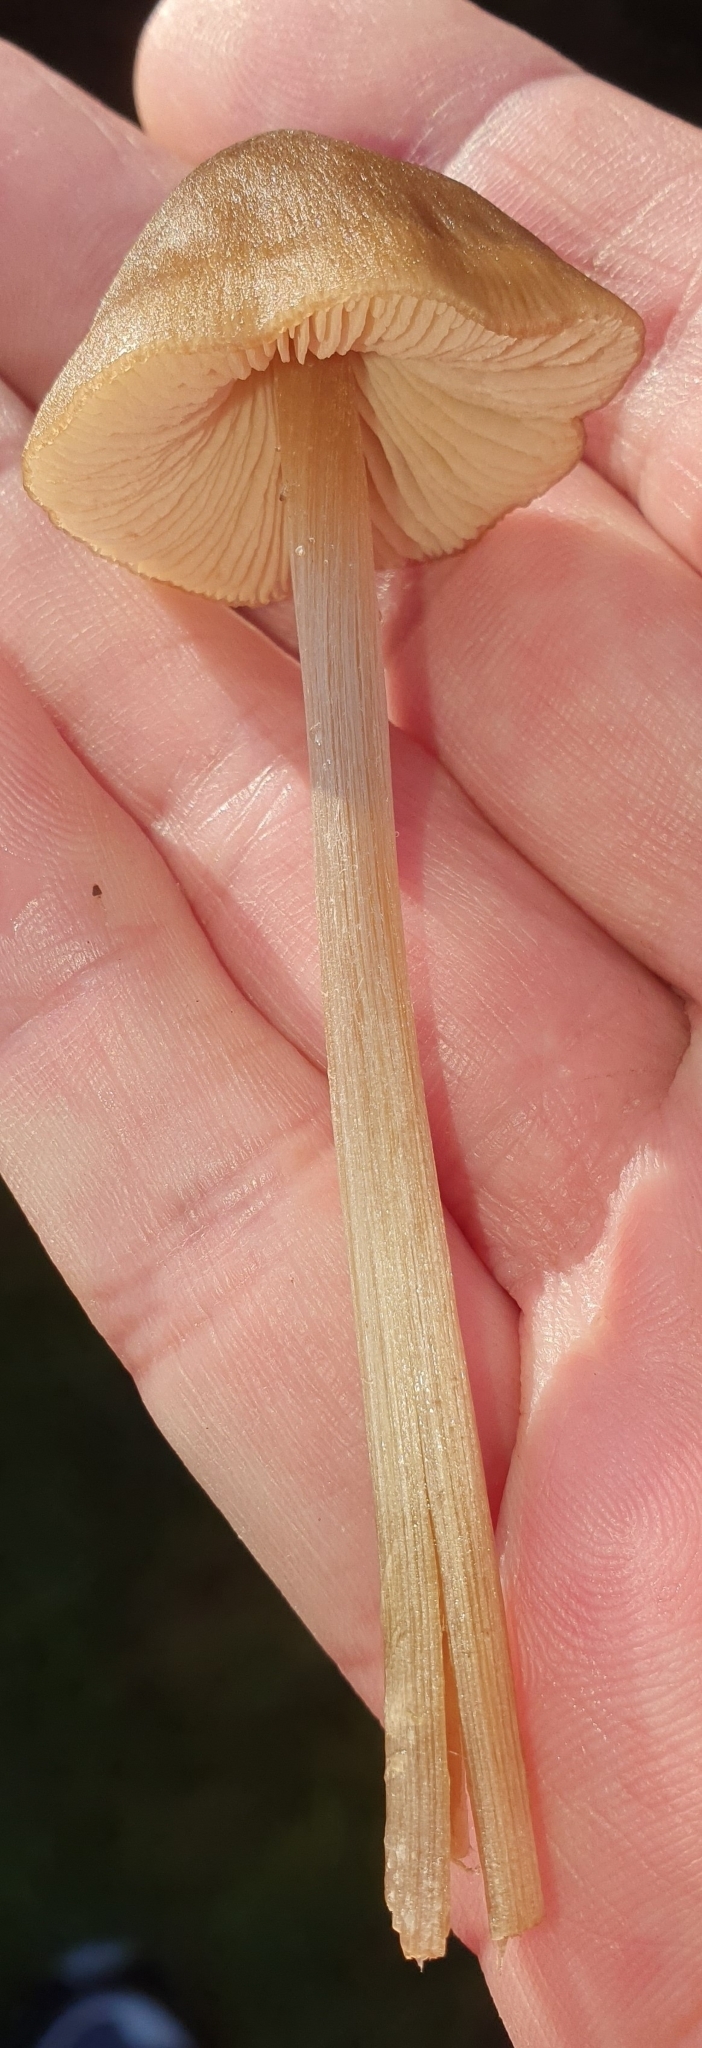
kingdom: Fungi
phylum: Basidiomycota
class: Agaricomycetes
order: Agaricales
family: Entolomataceae
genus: Entoloma
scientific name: Entoloma conferendum
